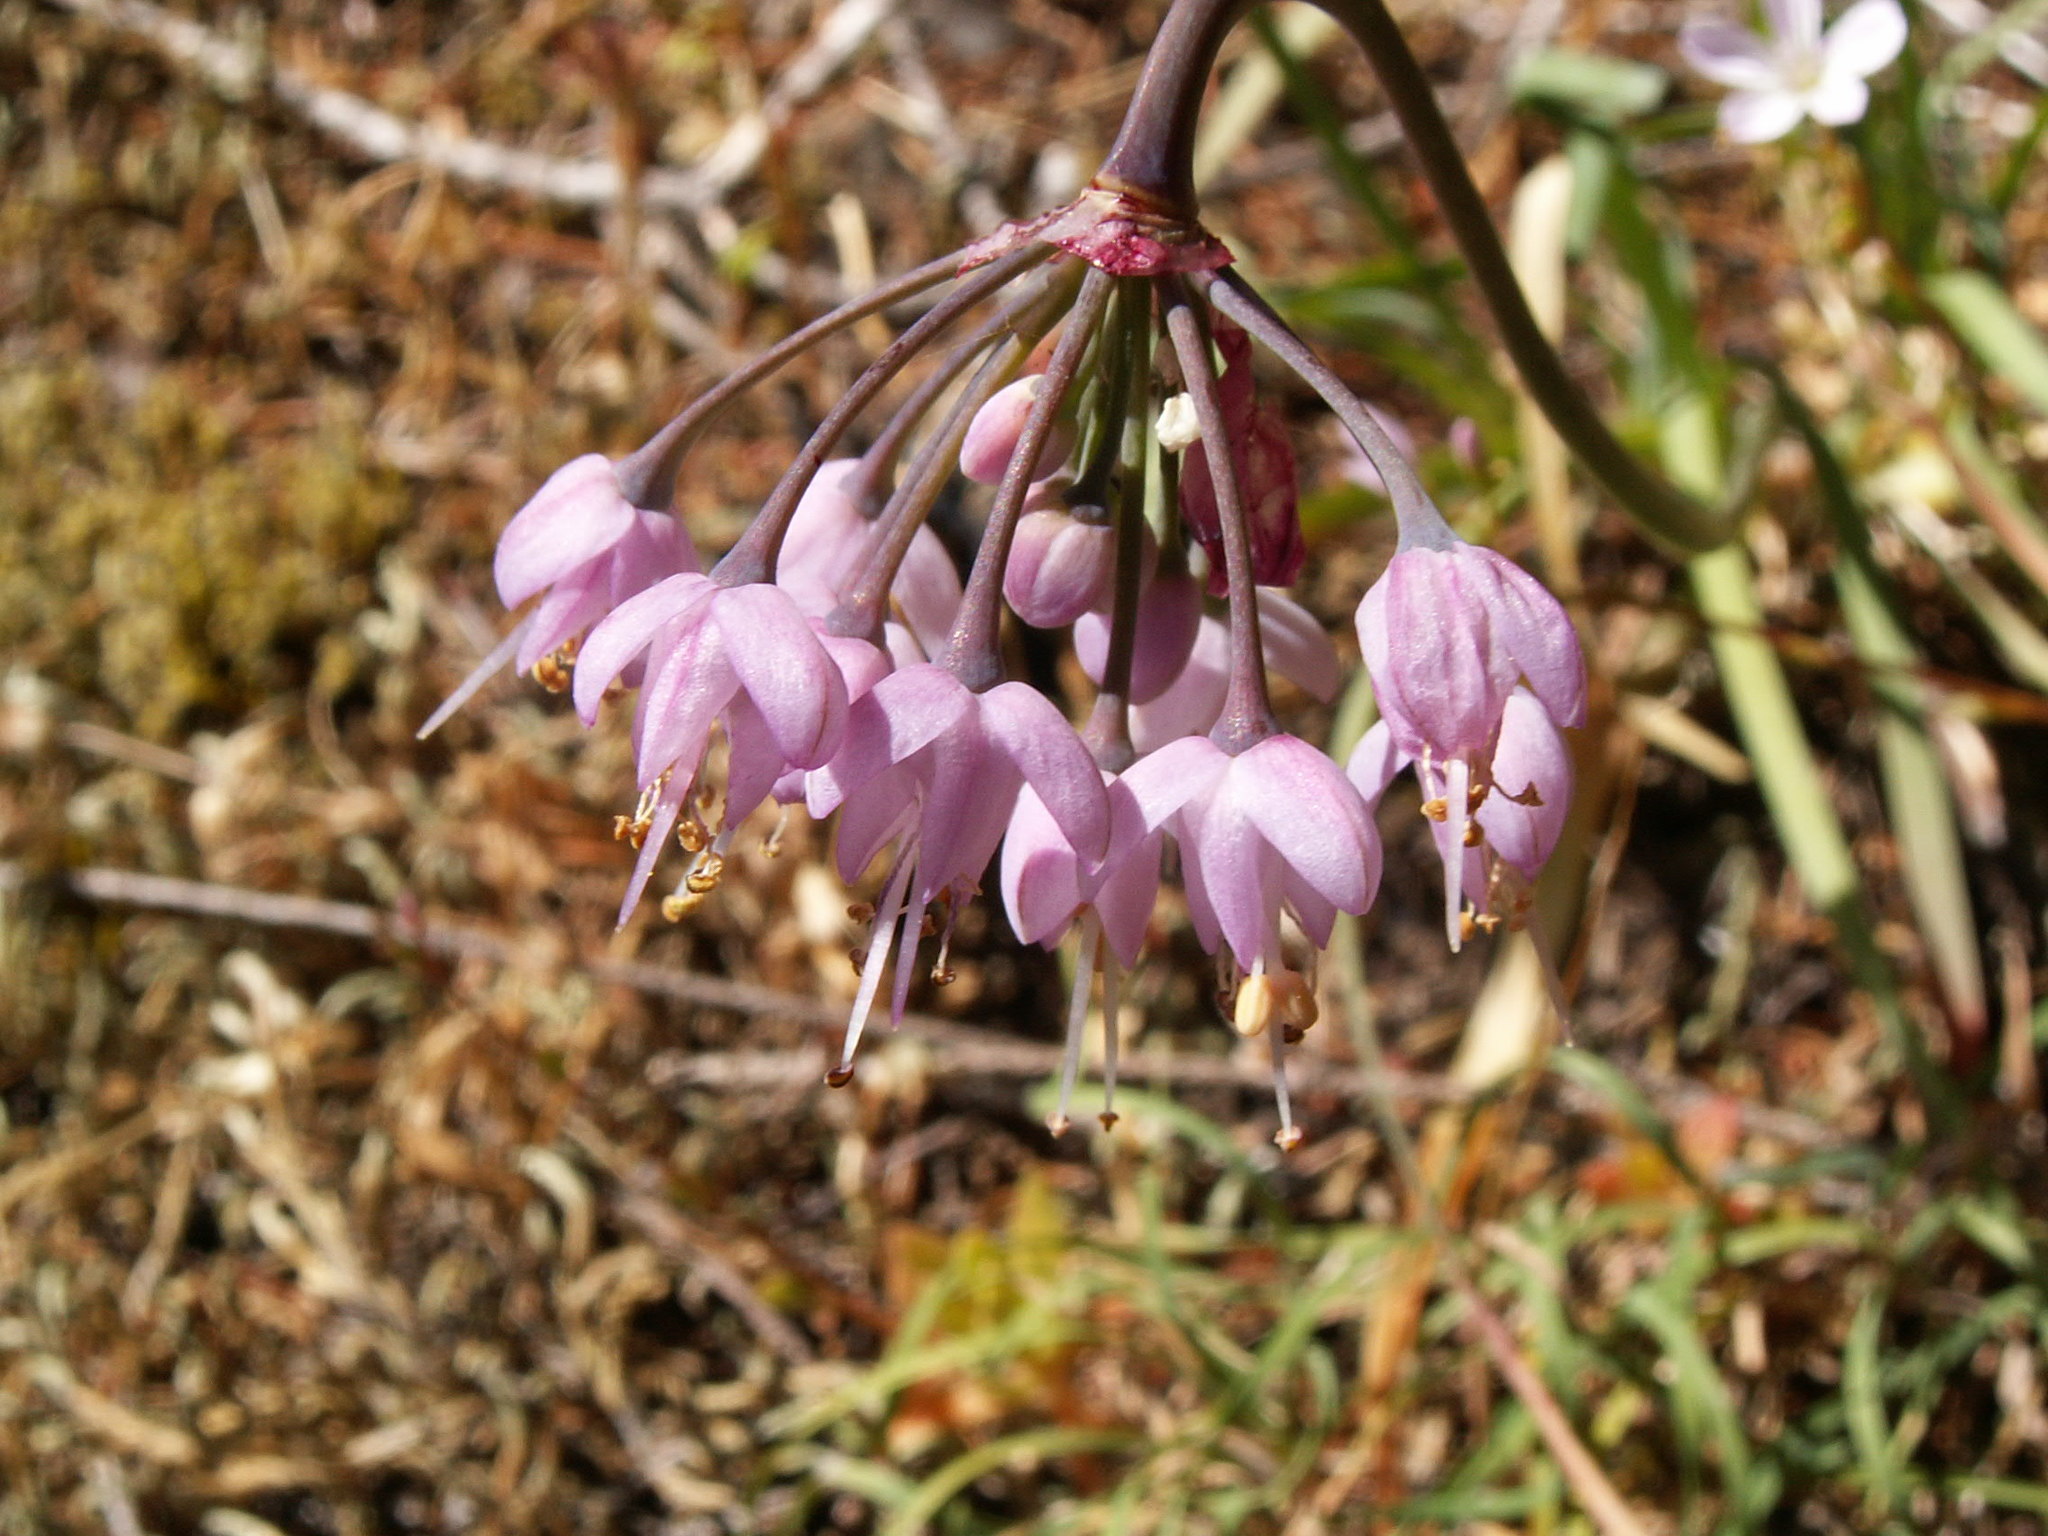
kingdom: Plantae
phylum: Tracheophyta
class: Liliopsida
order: Asparagales
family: Amaryllidaceae
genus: Allium
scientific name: Allium cernuum
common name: Nodding onion
